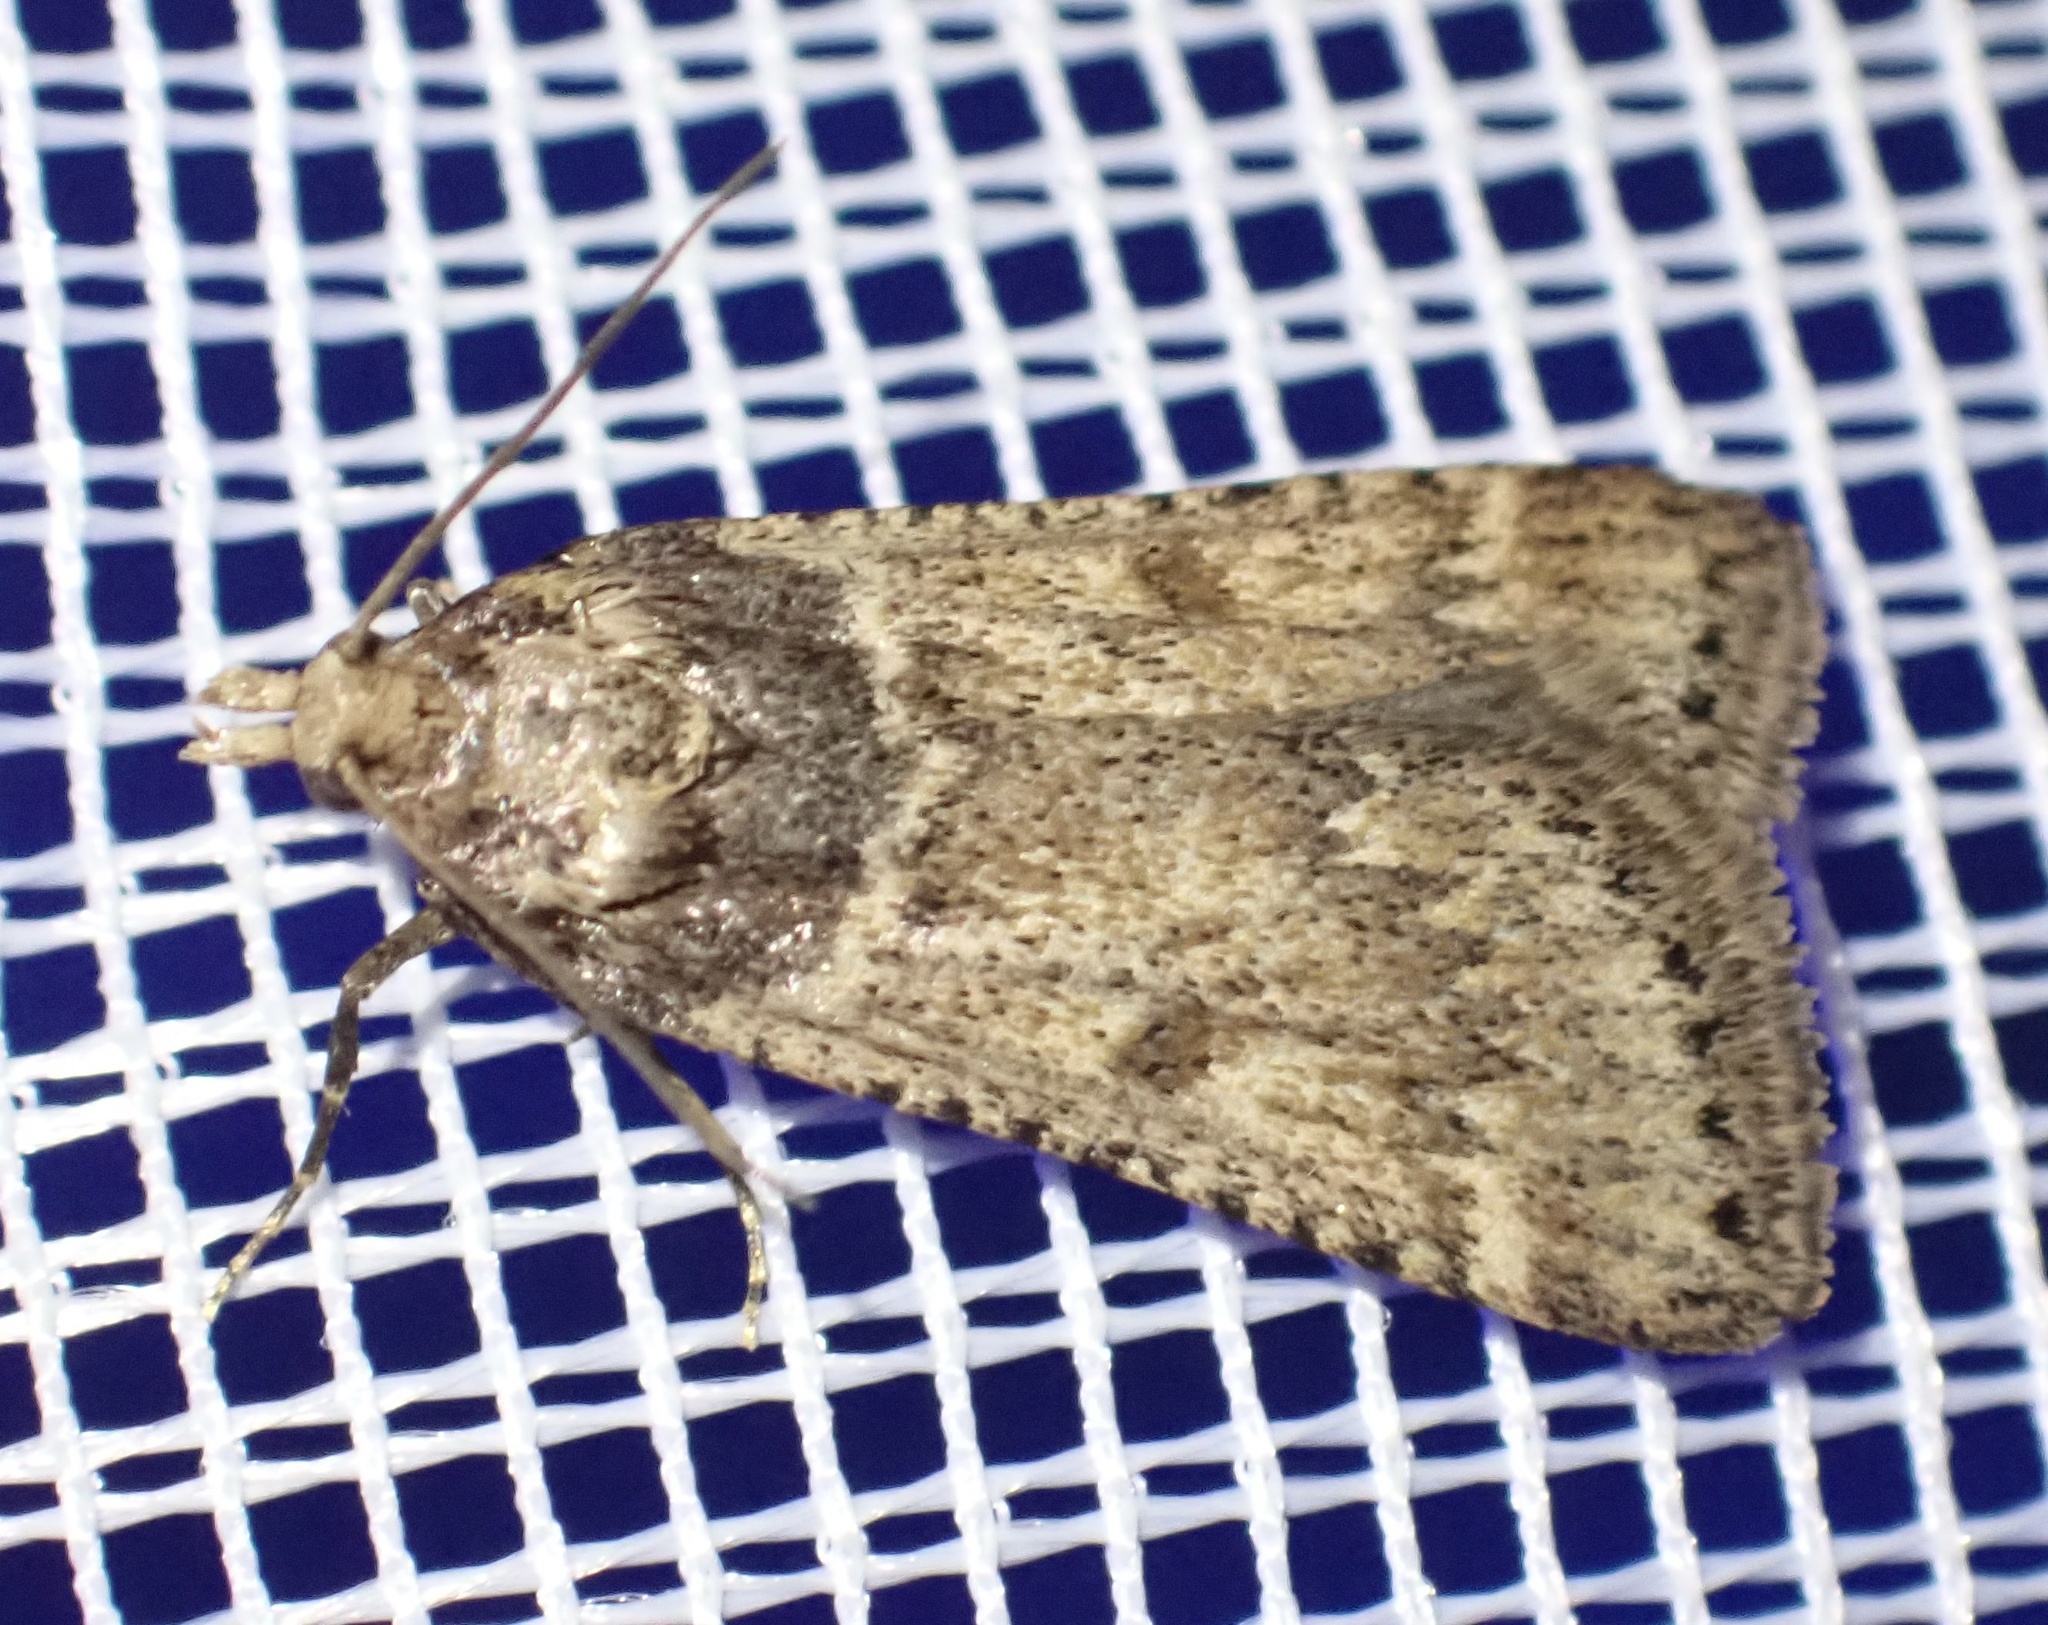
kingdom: Animalia
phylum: Arthropoda
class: Insecta
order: Lepidoptera
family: Pyralidae
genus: Philotis
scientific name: Philotis basalis
